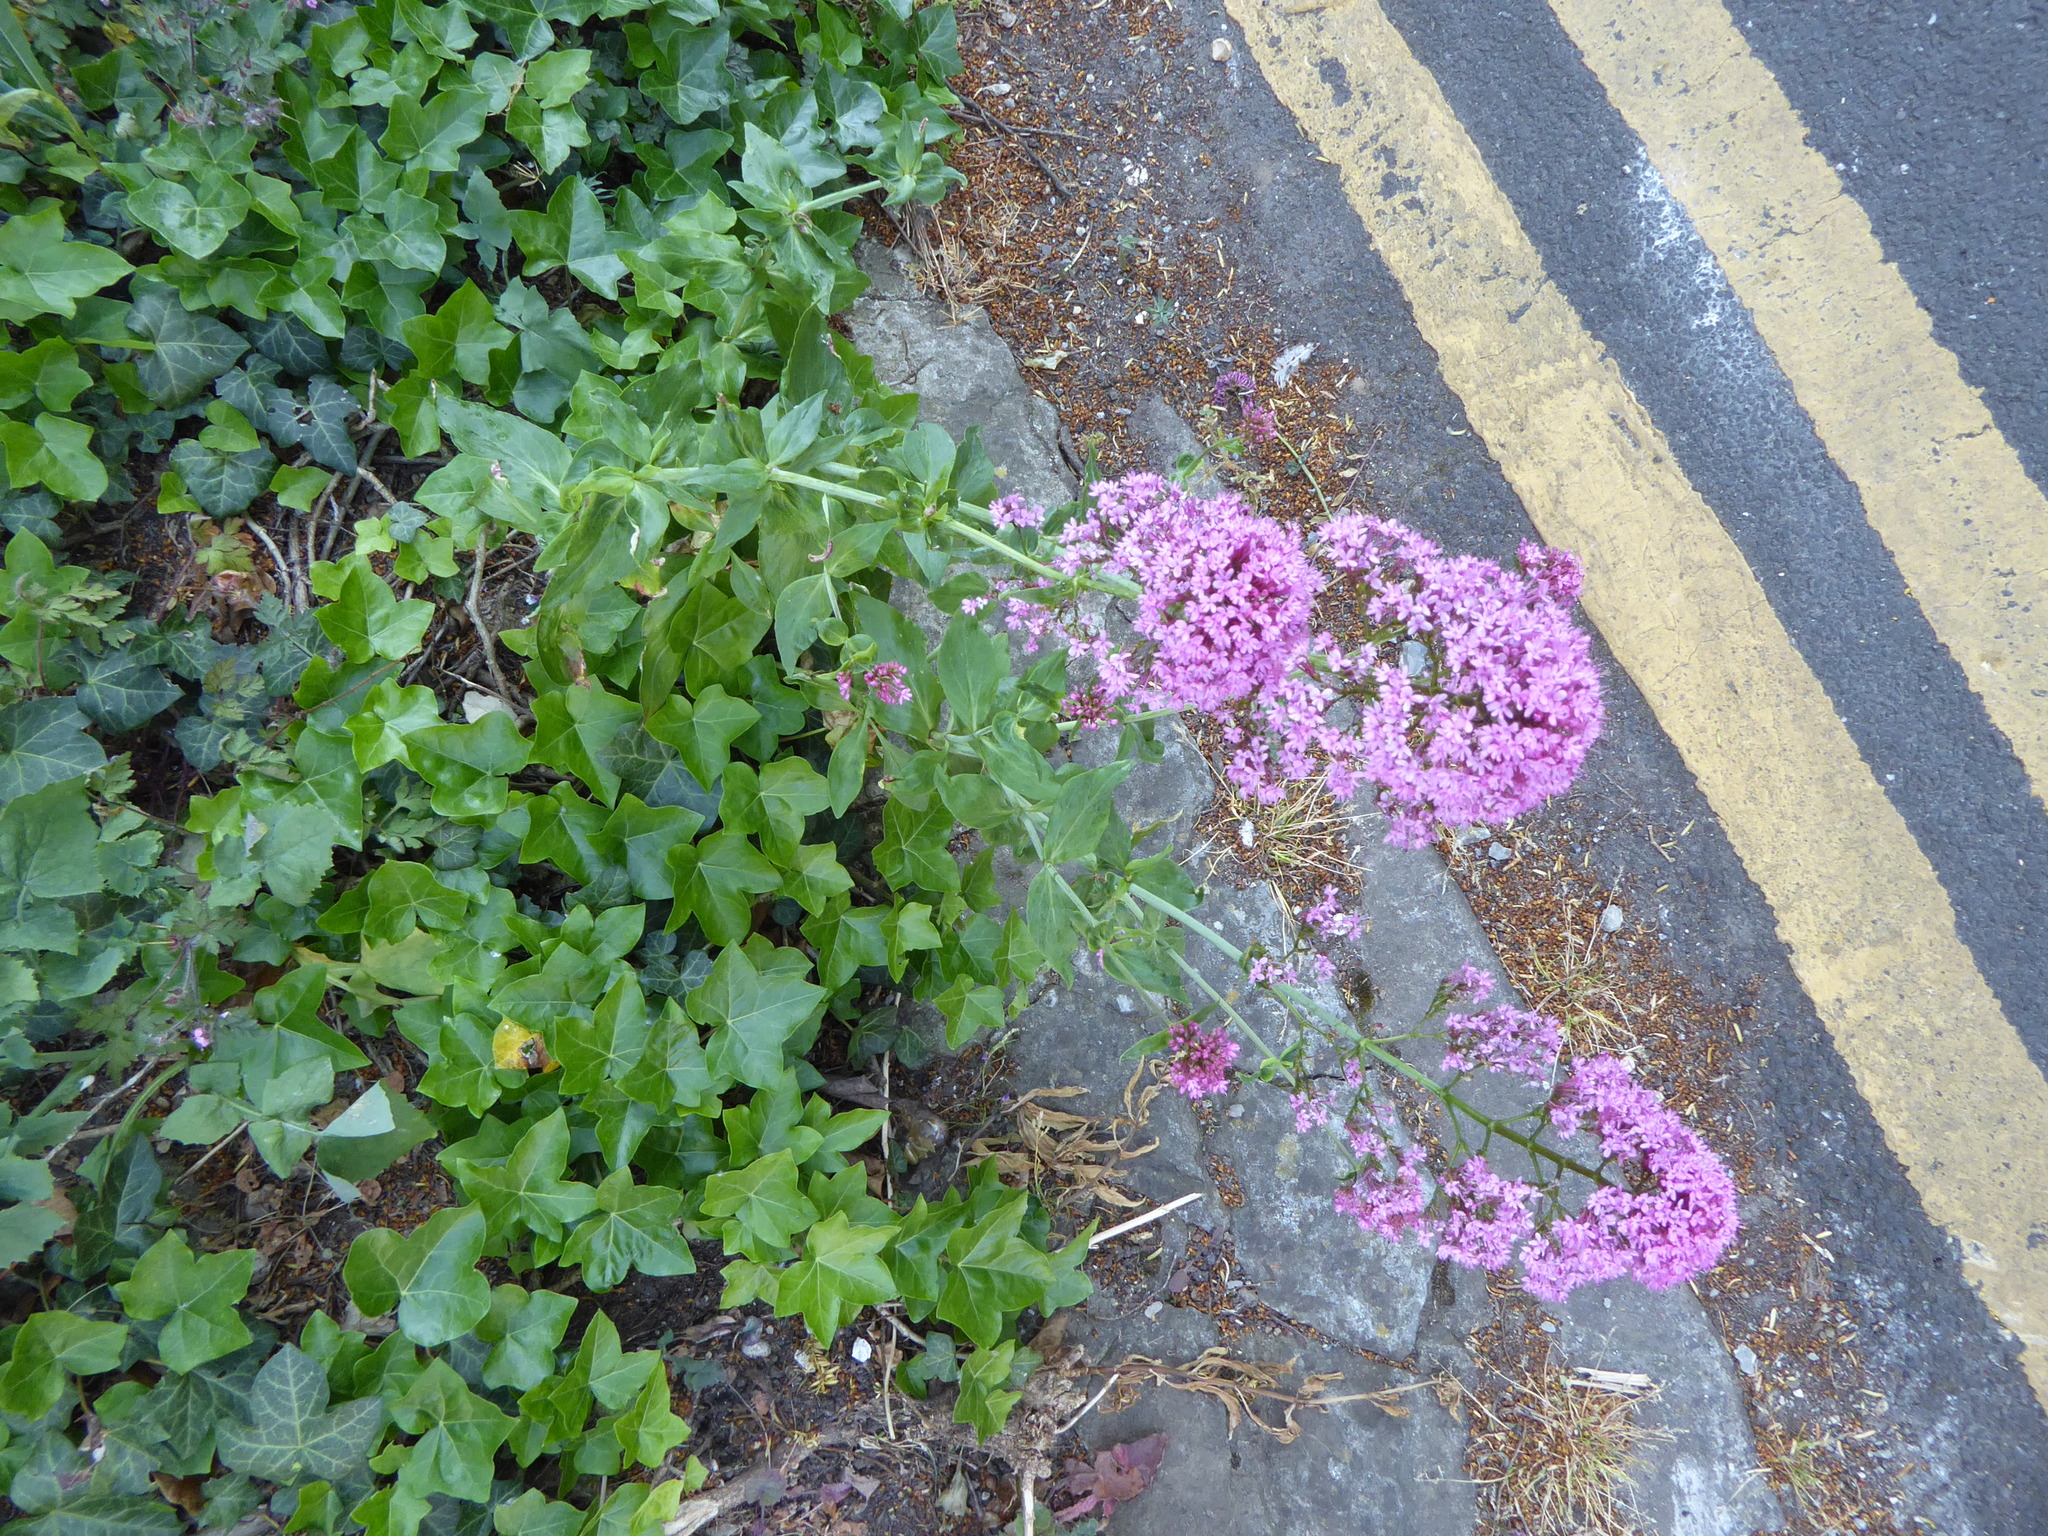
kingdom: Plantae
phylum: Tracheophyta
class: Magnoliopsida
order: Dipsacales
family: Caprifoliaceae
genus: Centranthus
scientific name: Centranthus ruber
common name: Red valerian
